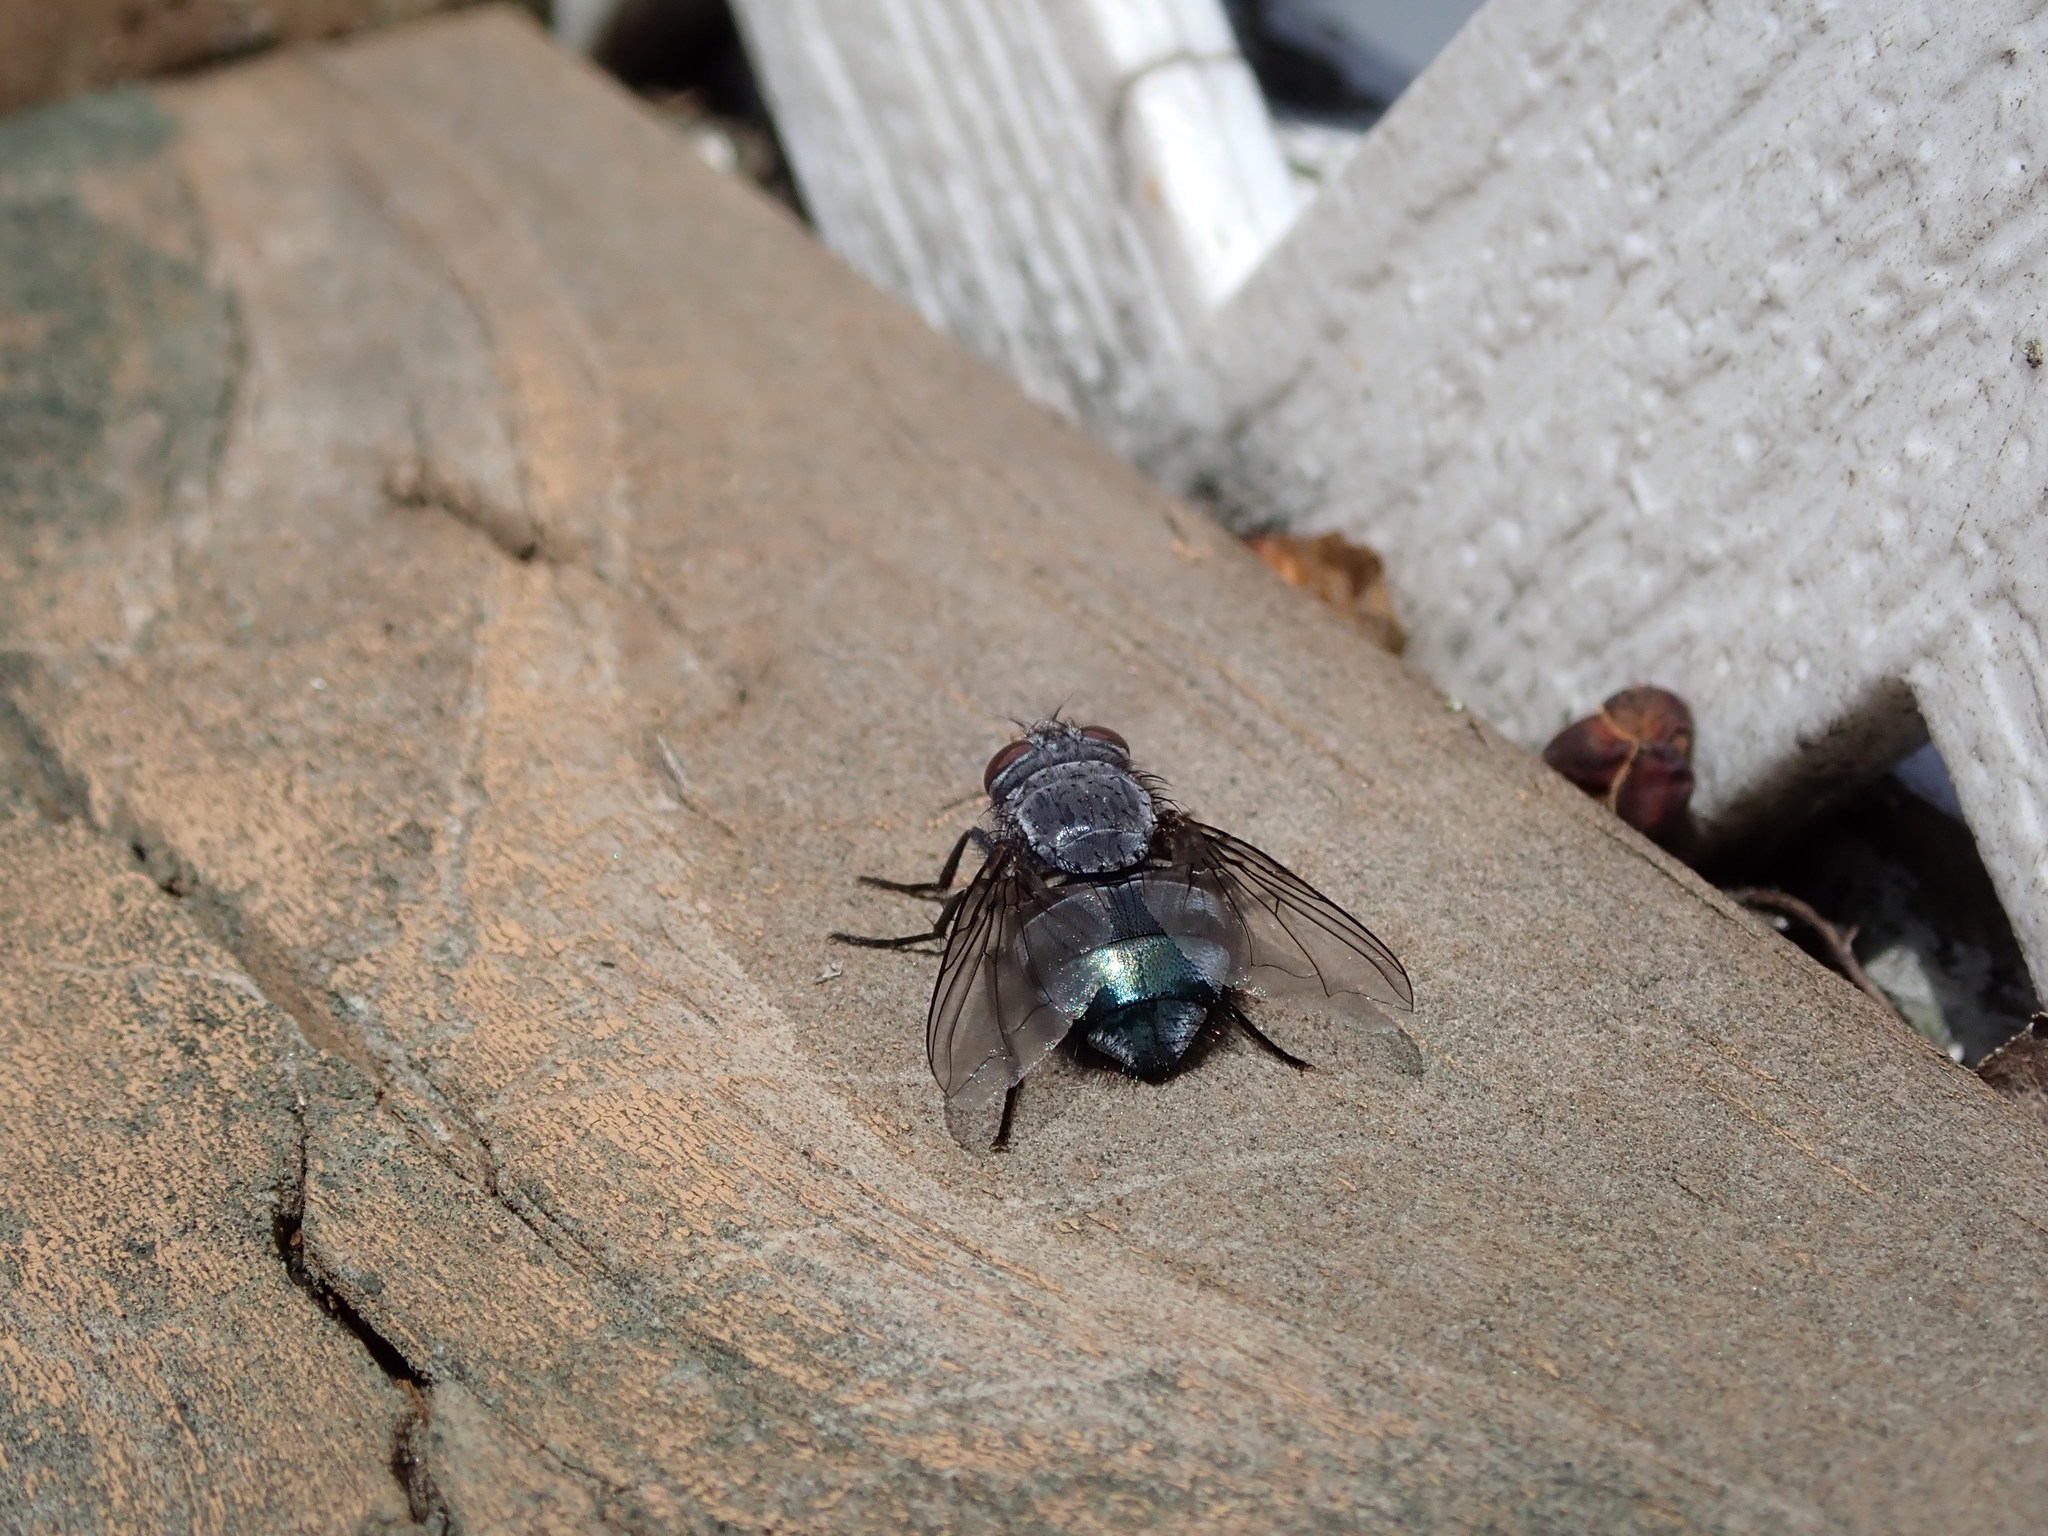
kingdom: Animalia
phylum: Arthropoda
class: Insecta
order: Diptera
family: Calliphoridae
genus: Calliphora
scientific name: Calliphora vicina
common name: Common blow flie
